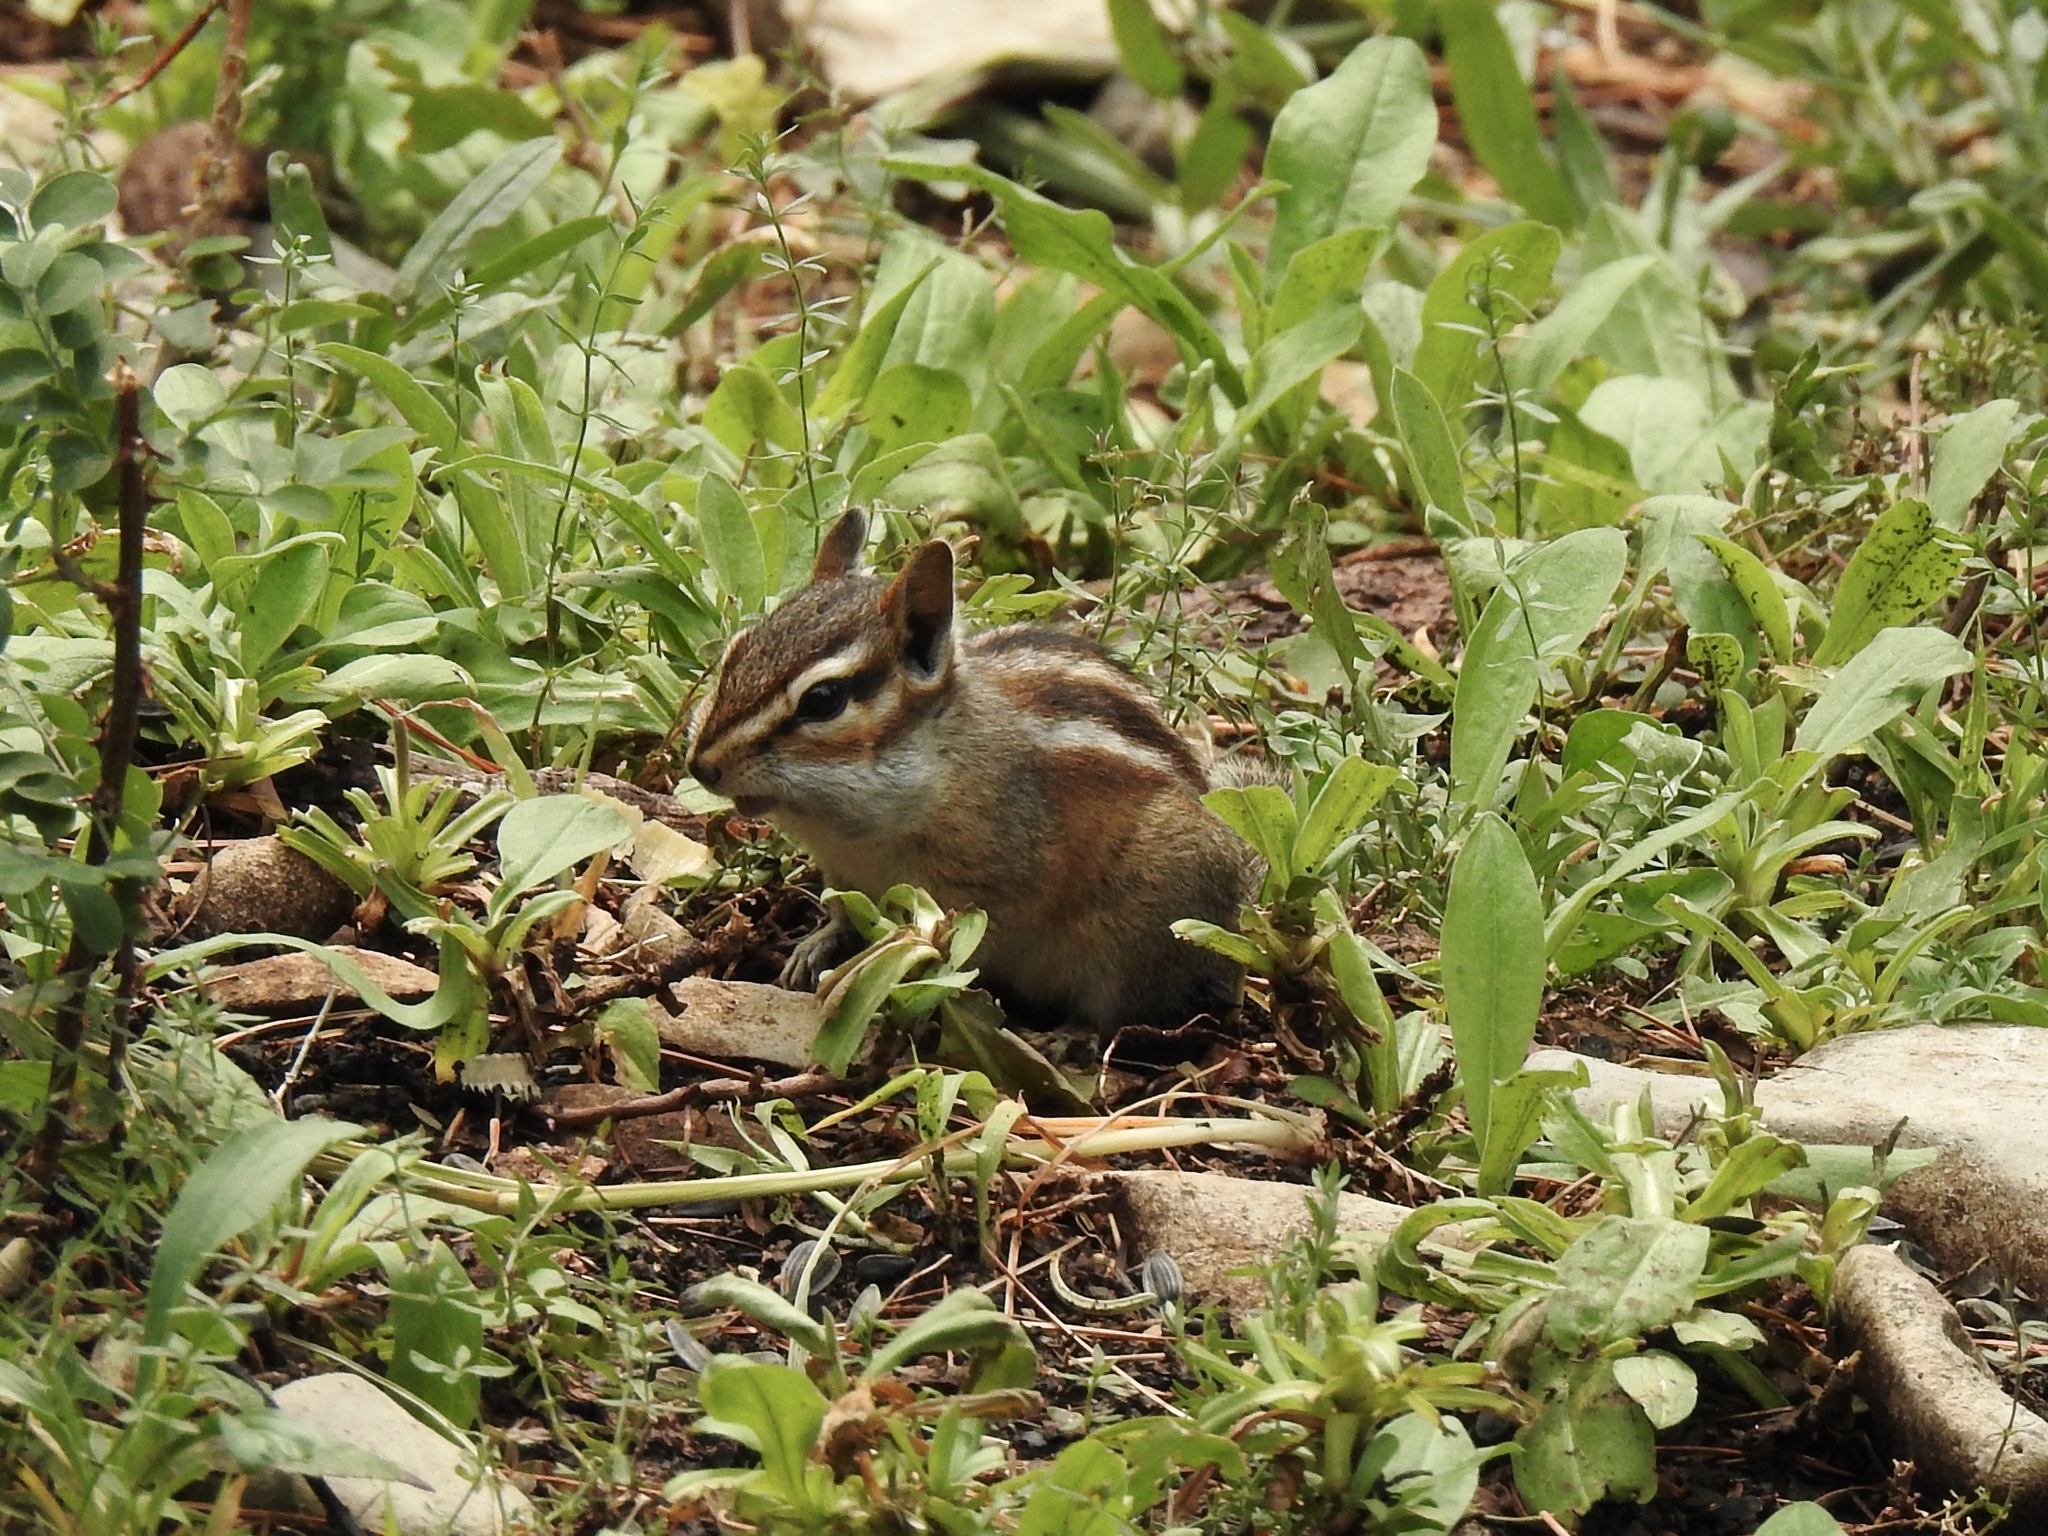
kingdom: Animalia
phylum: Chordata
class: Mammalia
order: Rodentia
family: Sciuridae
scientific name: Sciuridae
